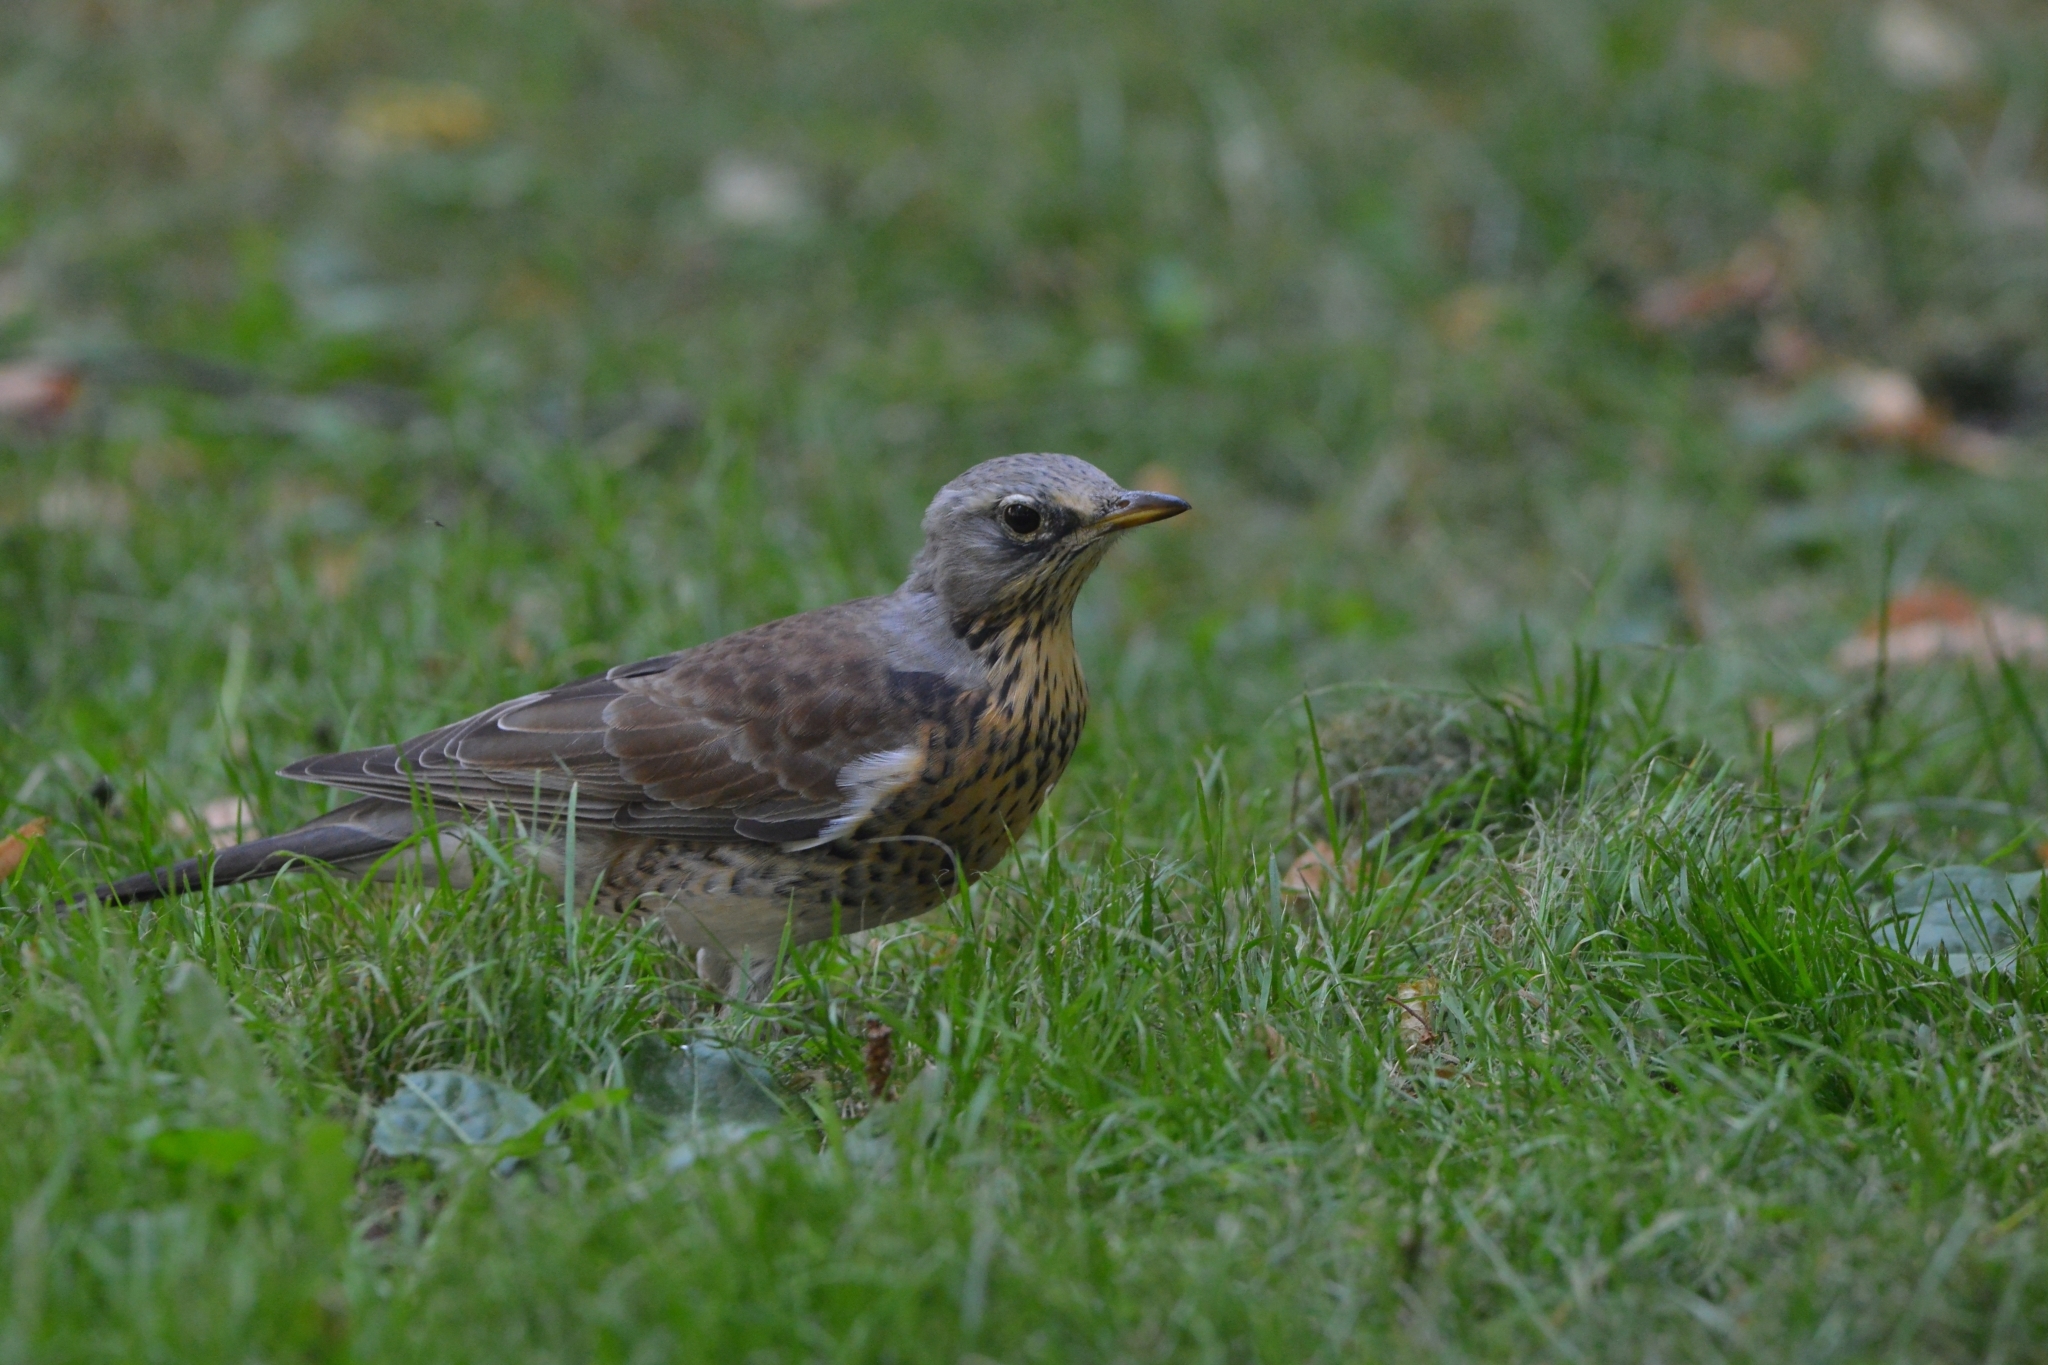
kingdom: Animalia
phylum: Chordata
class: Aves
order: Passeriformes
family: Turdidae
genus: Turdus
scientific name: Turdus pilaris
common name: Fieldfare
